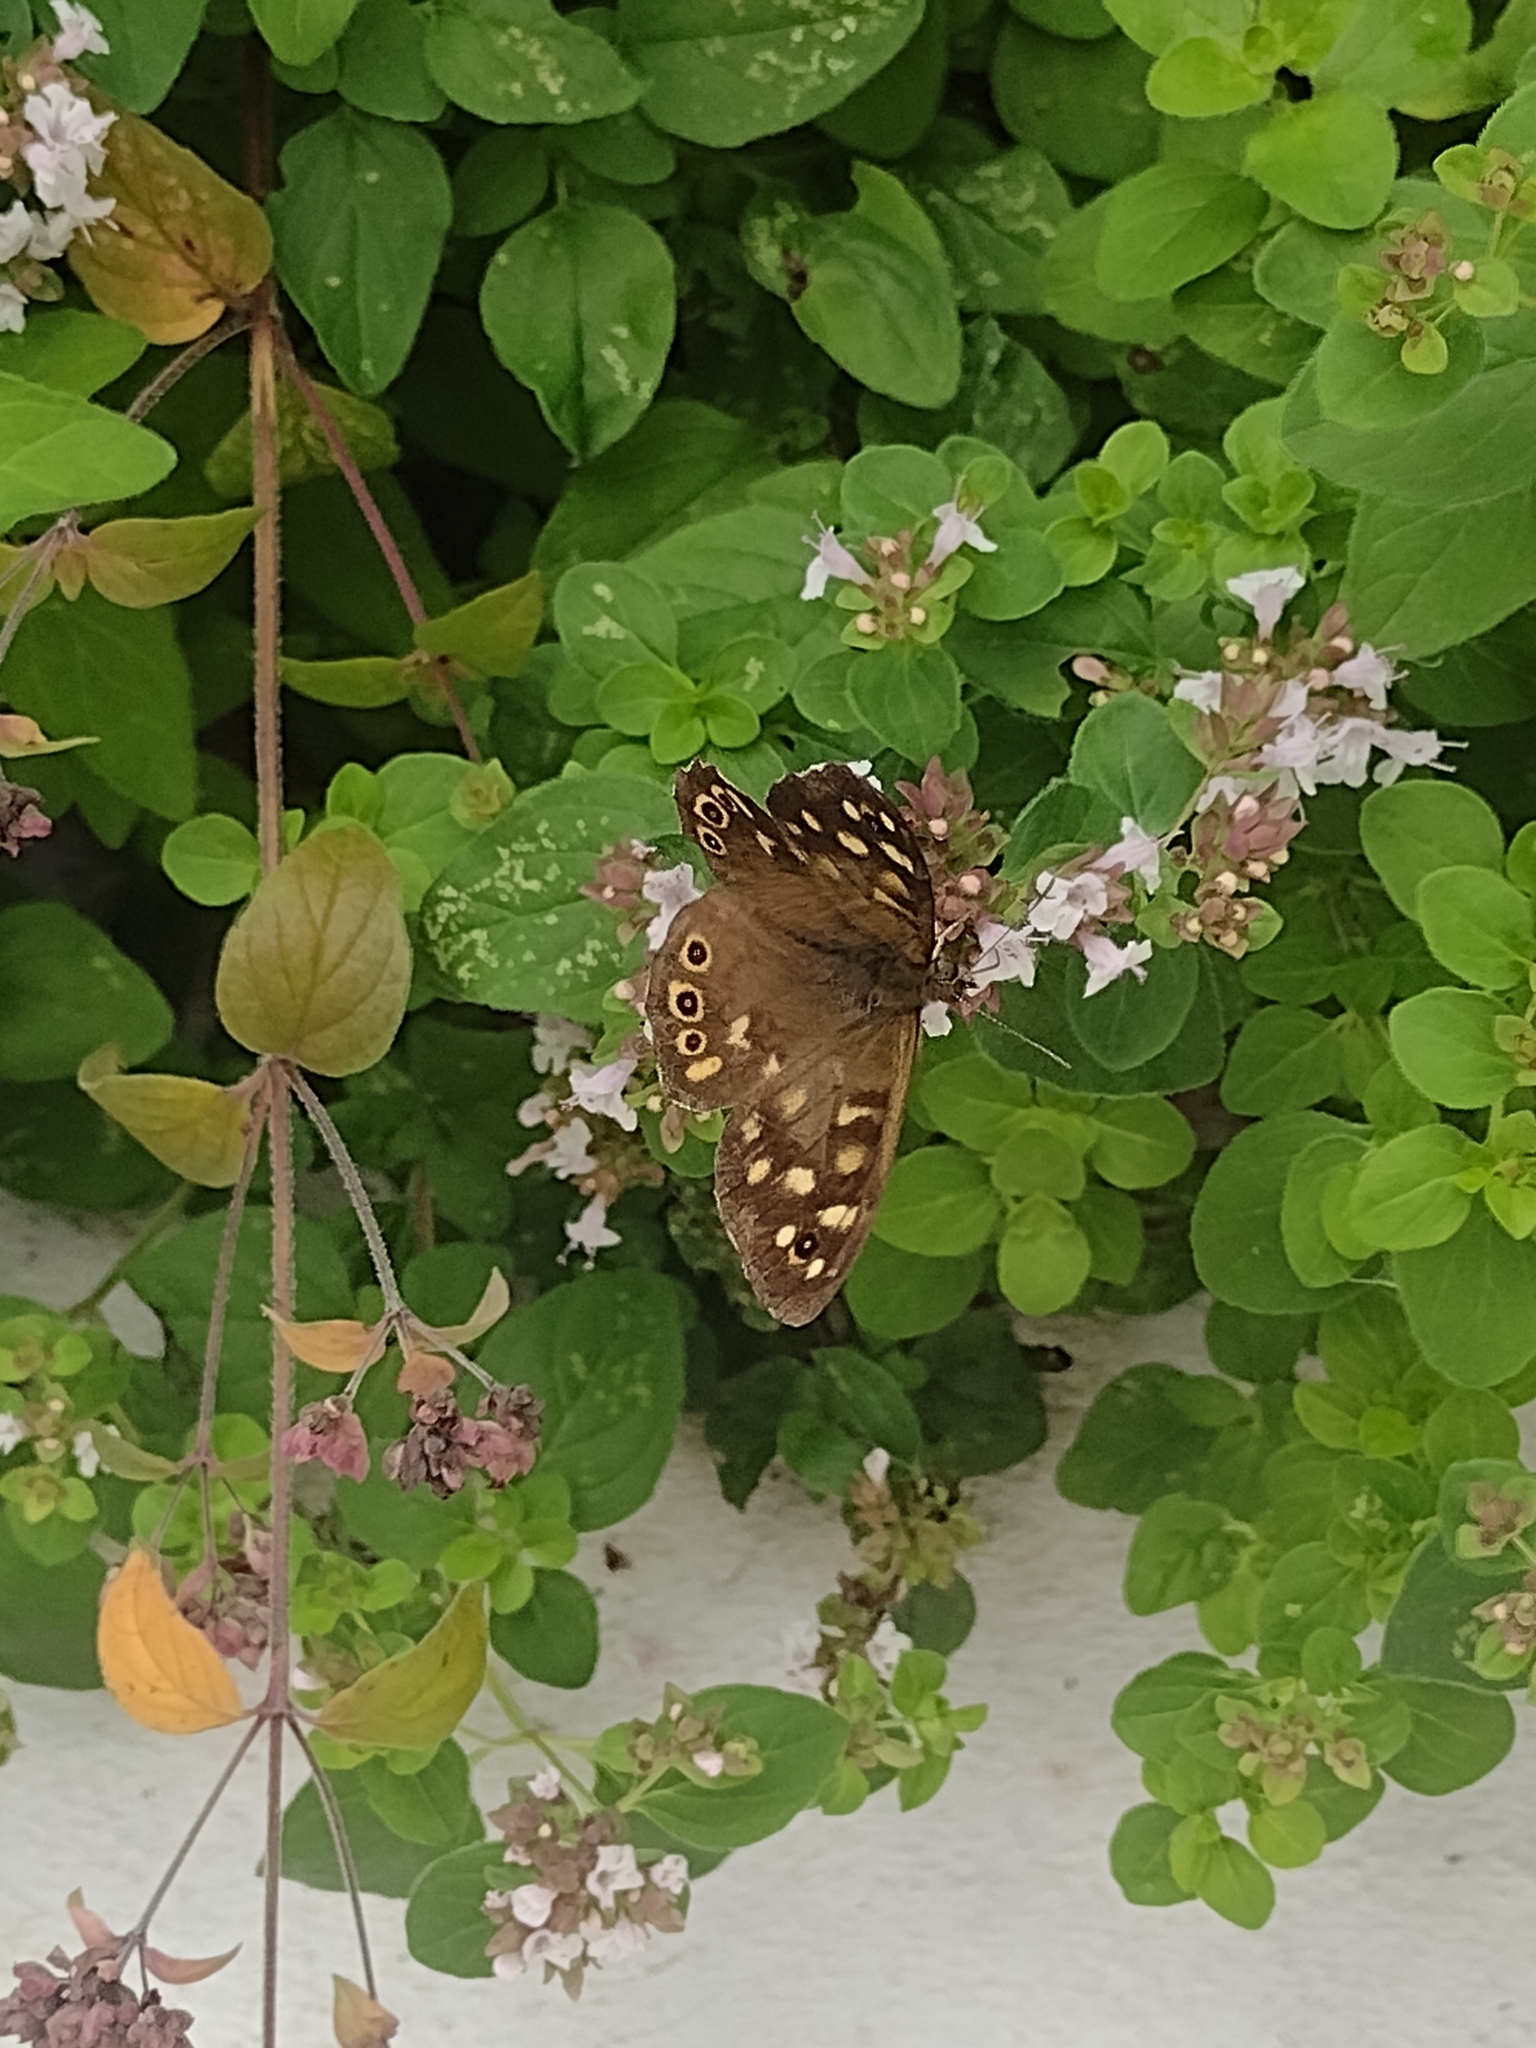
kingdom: Animalia
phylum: Arthropoda
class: Insecta
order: Lepidoptera
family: Nymphalidae
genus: Pararge
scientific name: Pararge aegeria
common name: Speckled wood
